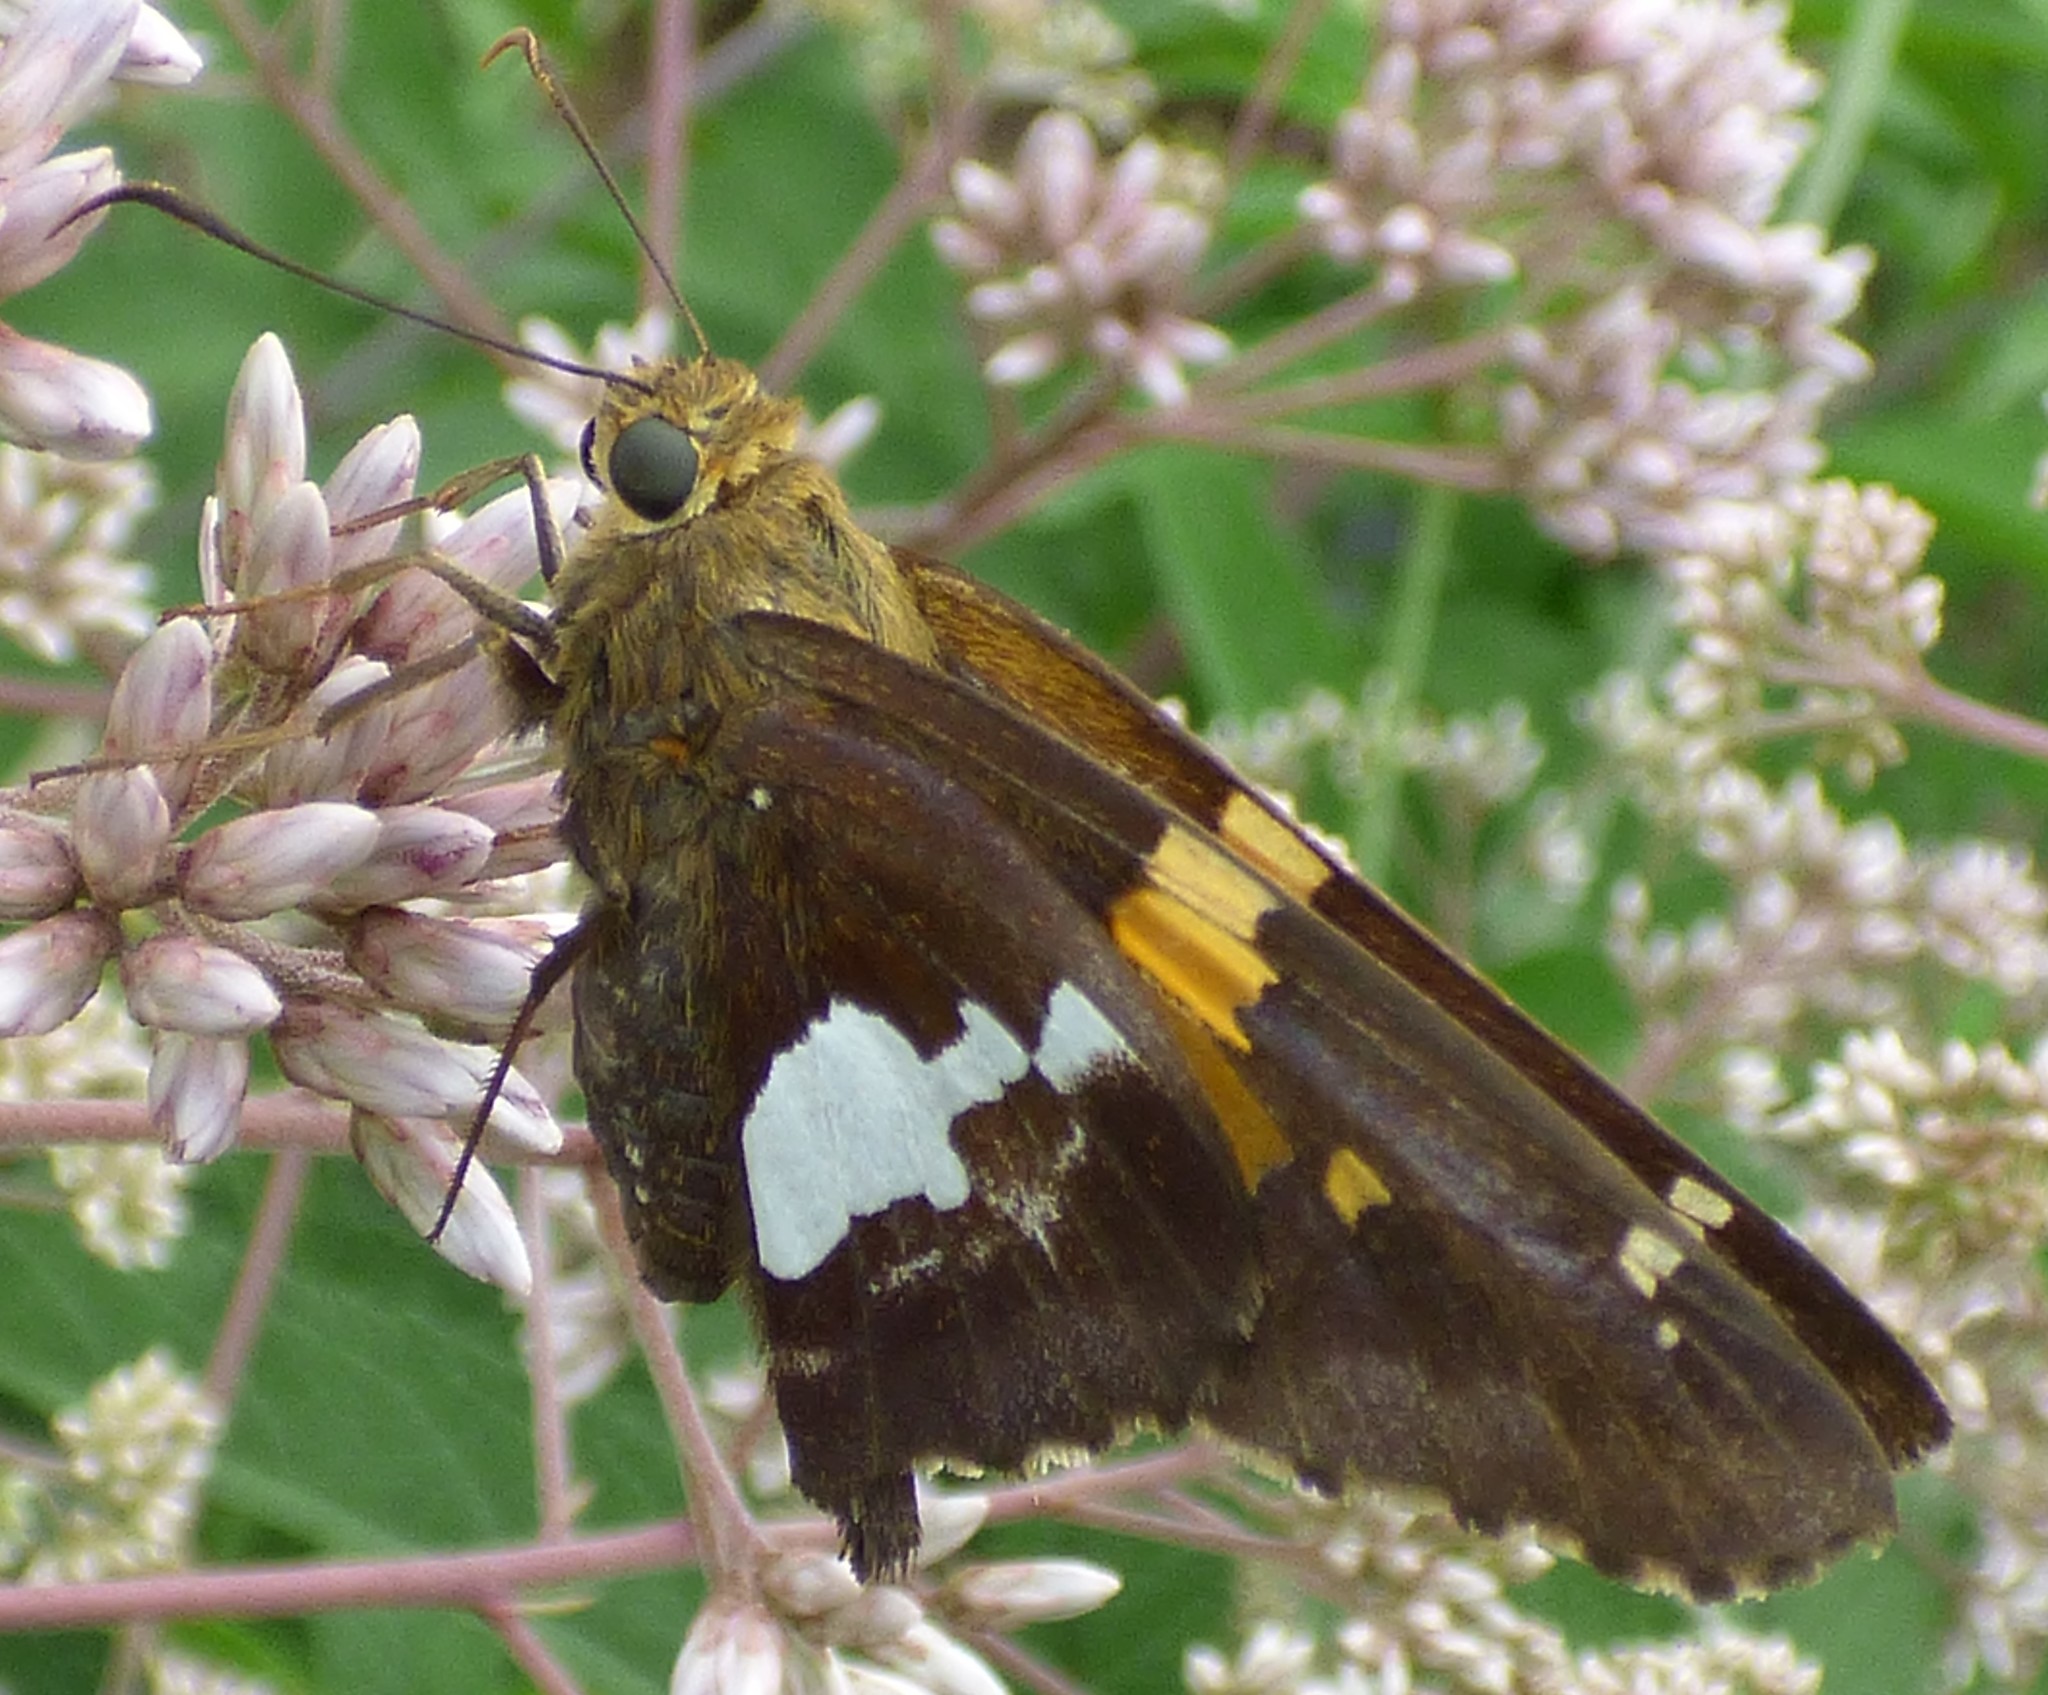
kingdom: Animalia
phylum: Arthropoda
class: Insecta
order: Lepidoptera
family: Hesperiidae
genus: Epargyreus
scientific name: Epargyreus clarus
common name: Silver-spotted skipper
